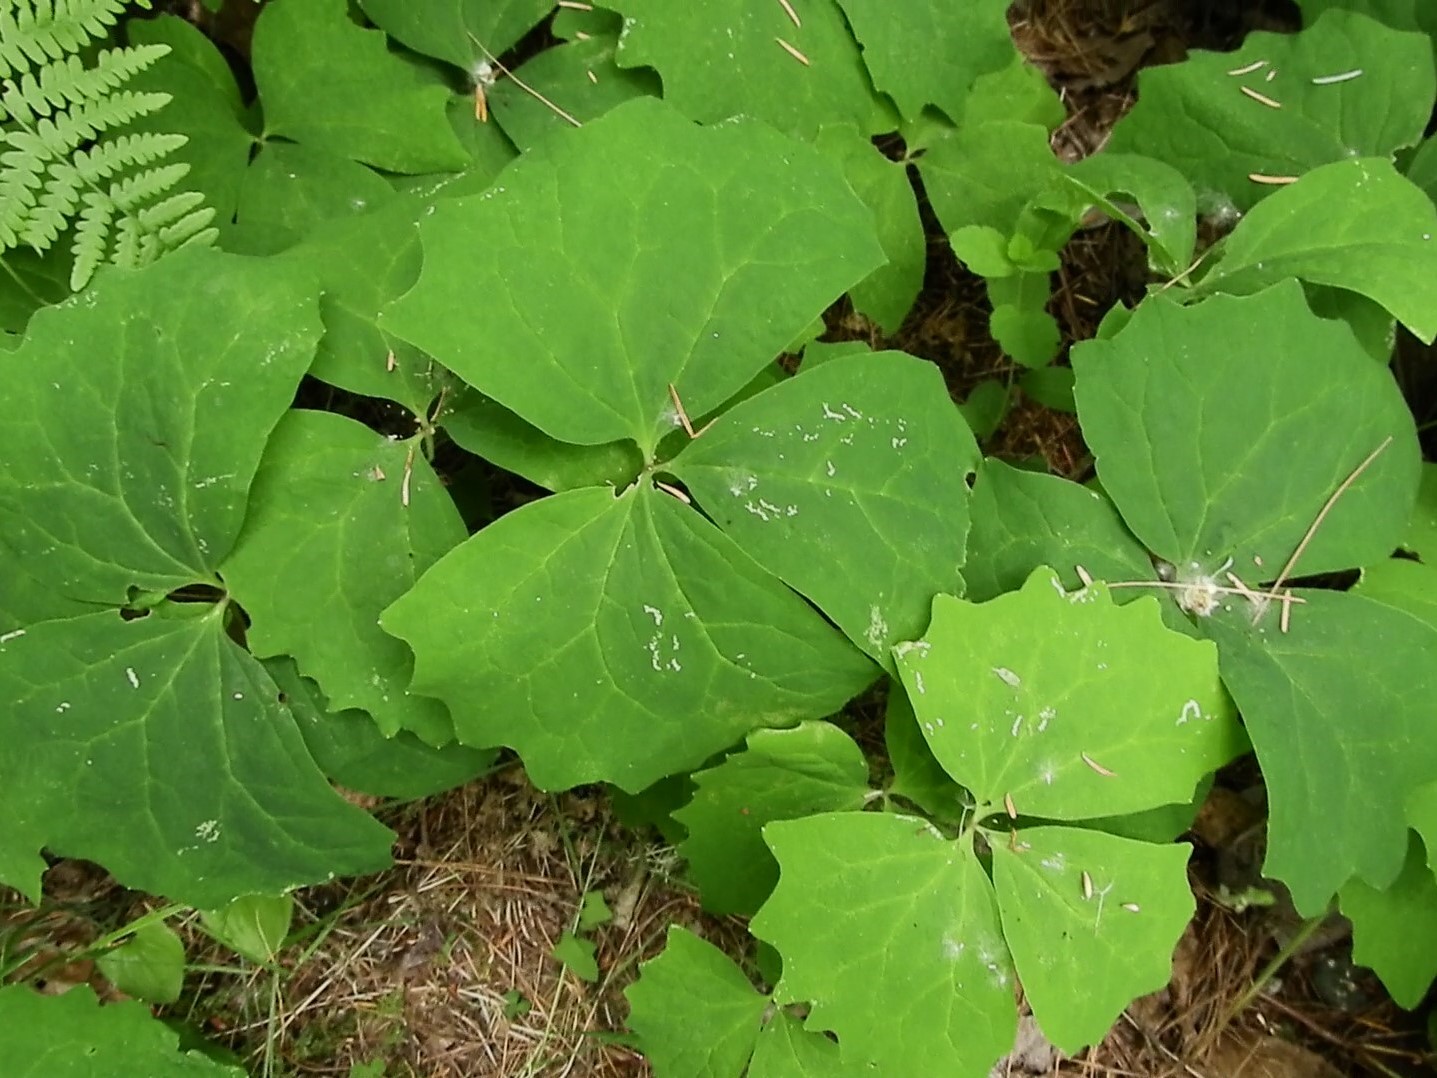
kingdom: Plantae
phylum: Tracheophyta
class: Magnoliopsida
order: Ranunculales
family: Berberidaceae
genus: Achlys
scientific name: Achlys triphylla
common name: Vanilla-leaf
